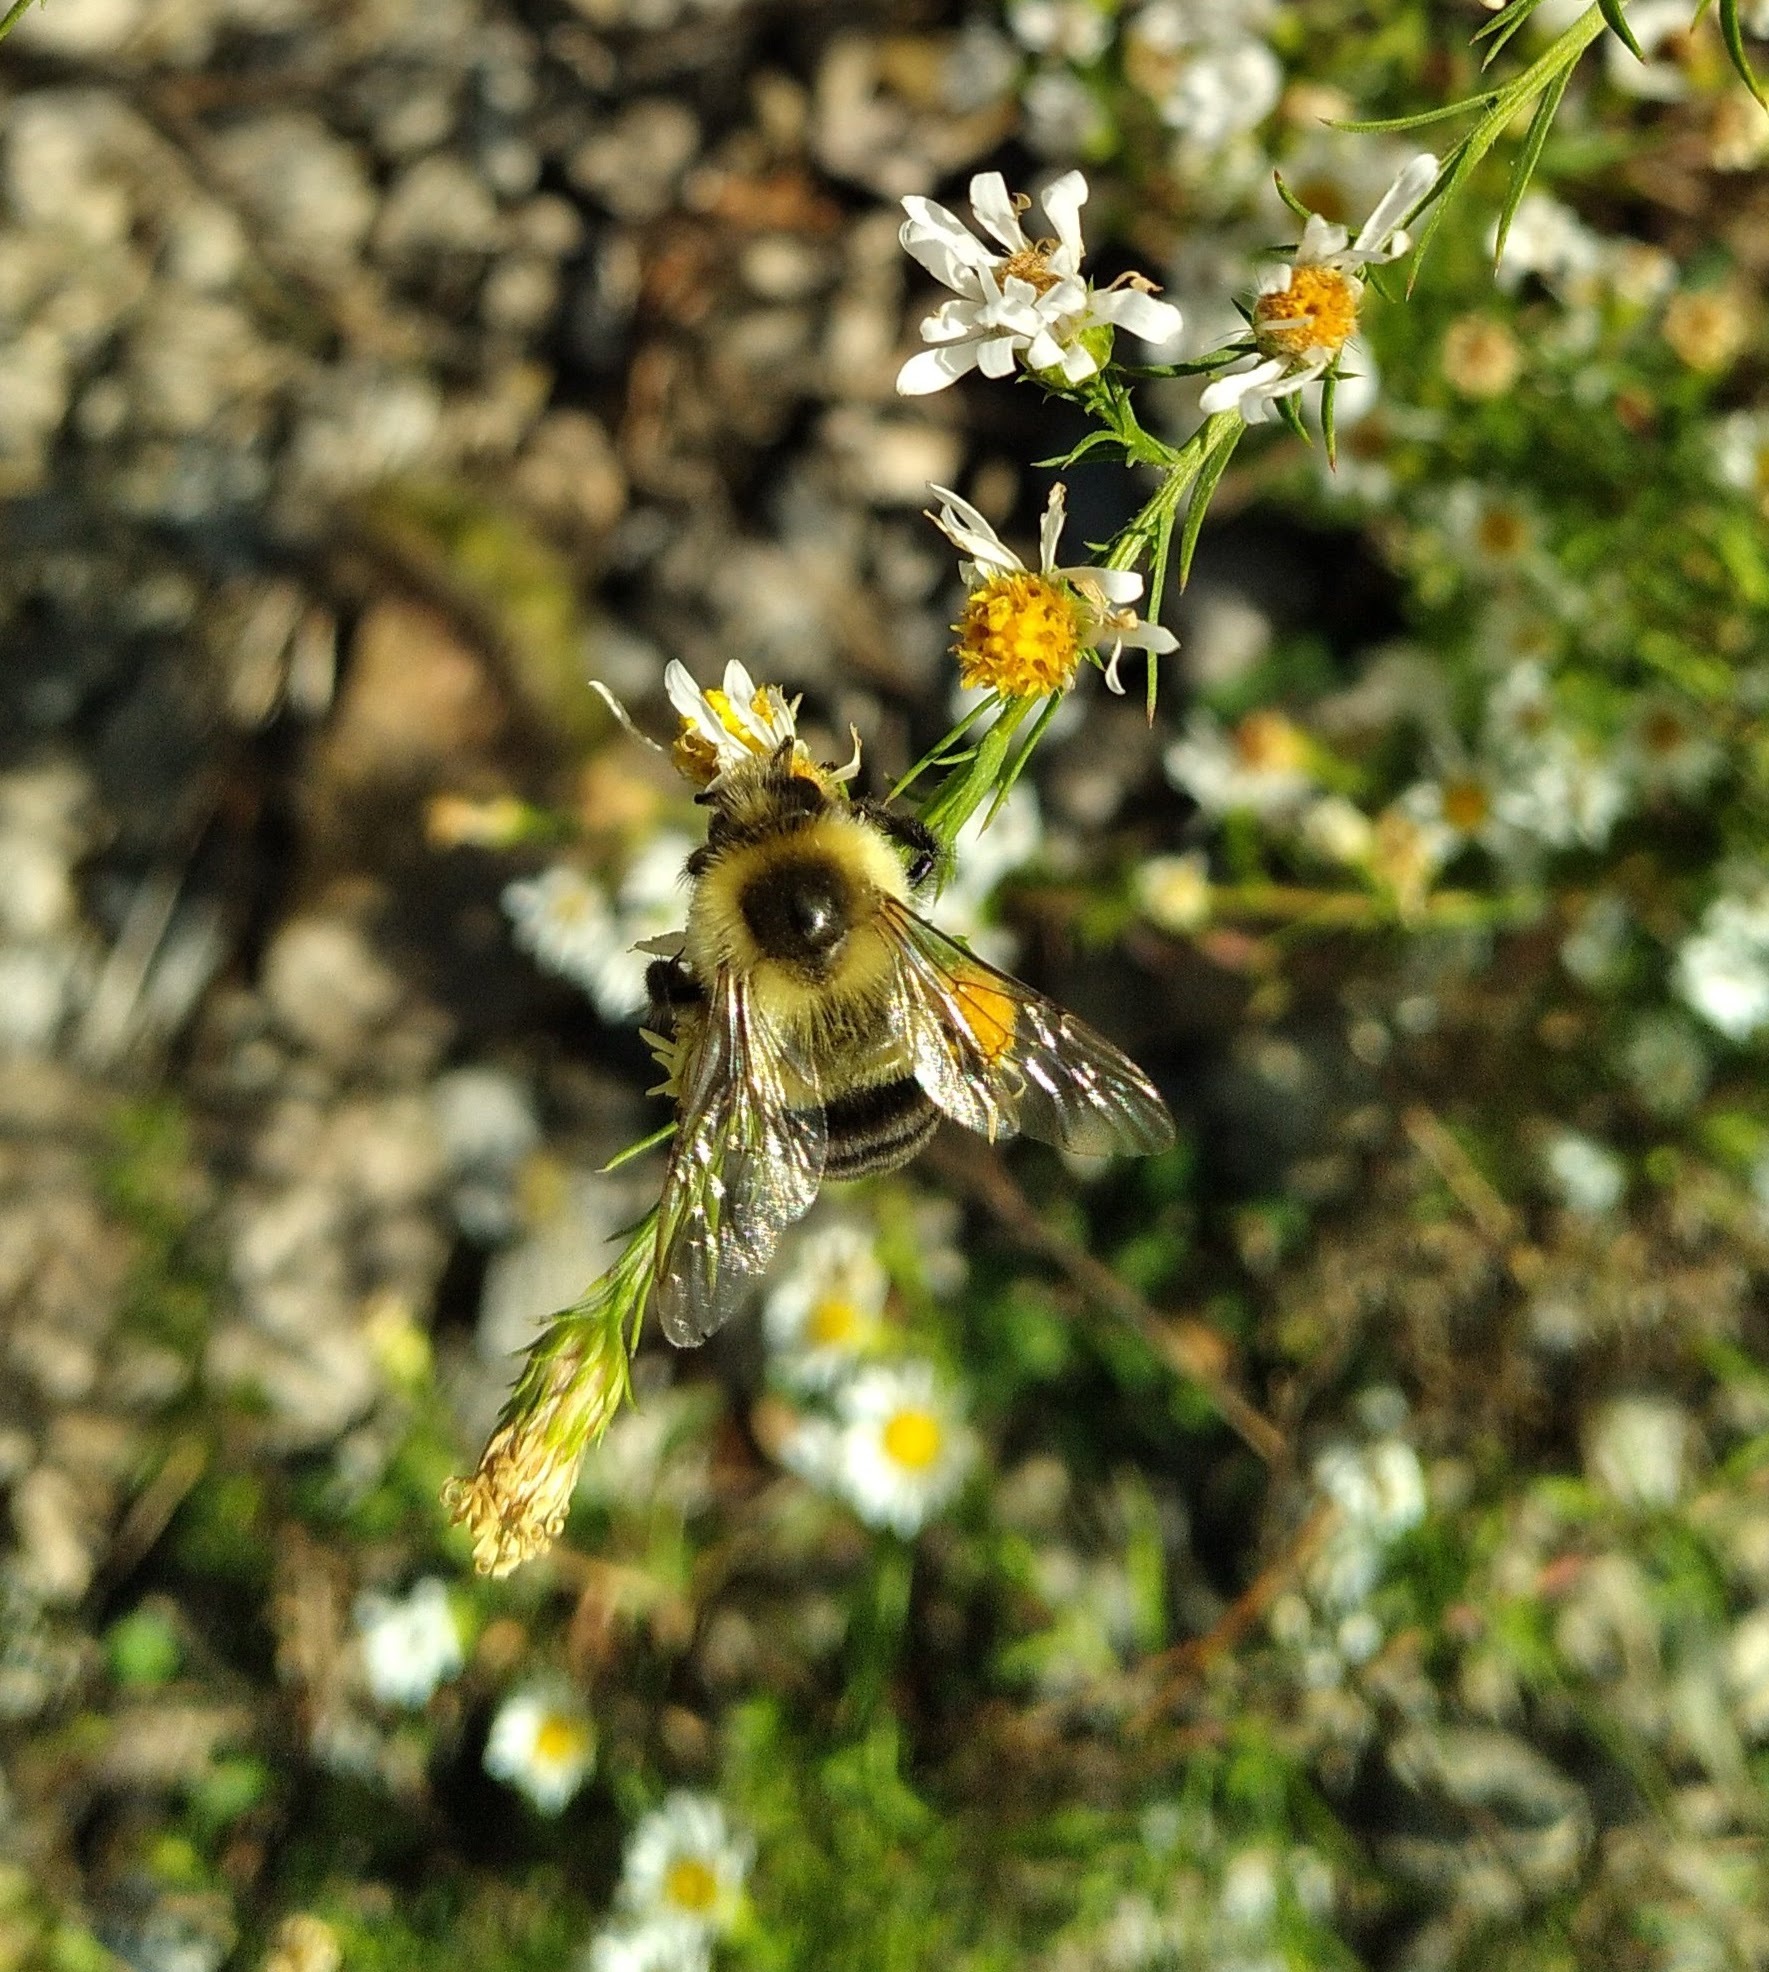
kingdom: Animalia
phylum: Arthropoda
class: Insecta
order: Hymenoptera
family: Apidae
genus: Bombus
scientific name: Bombus impatiens
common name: Common eastern bumble bee
